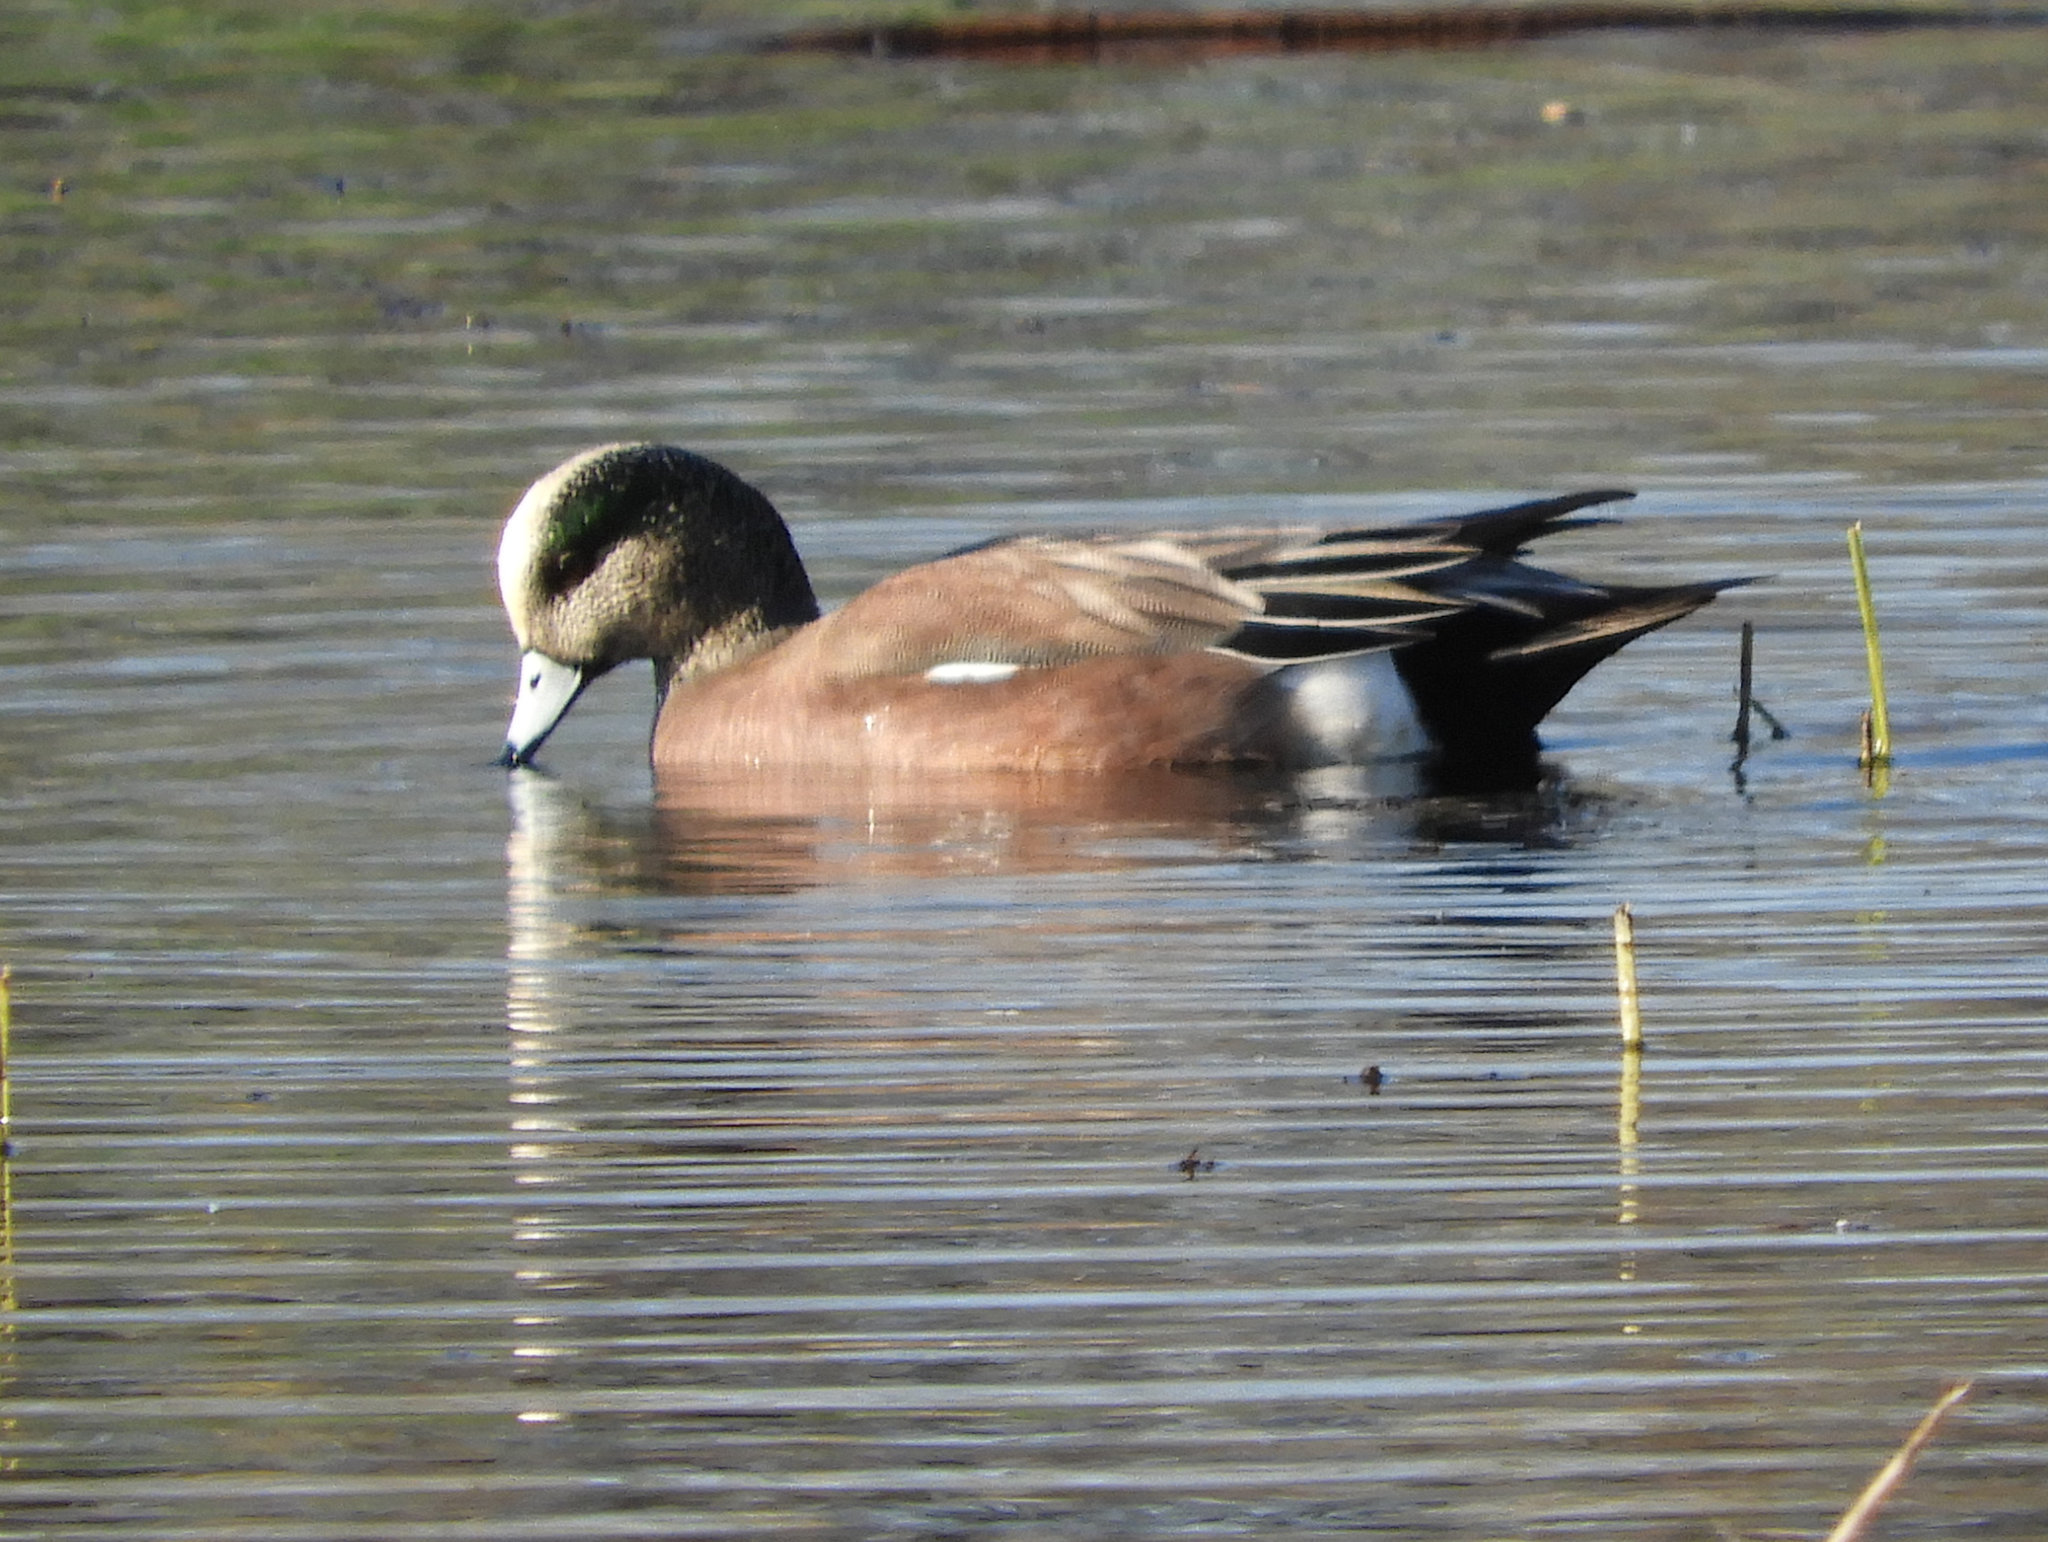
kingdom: Animalia
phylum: Chordata
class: Aves
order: Anseriformes
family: Anatidae
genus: Mareca
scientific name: Mareca americana
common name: American wigeon
